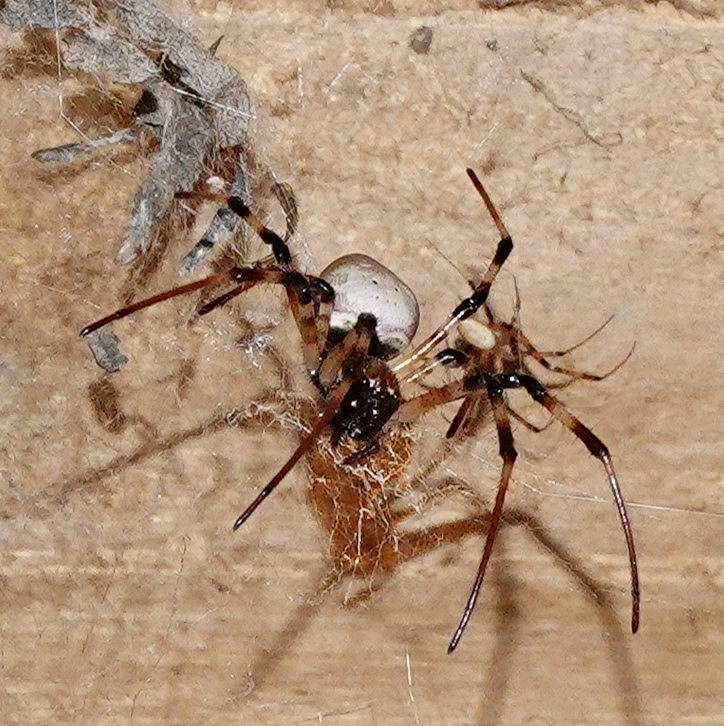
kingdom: Animalia
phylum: Arthropoda
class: Arachnida
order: Araneae
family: Araneidae
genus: Nephilingis
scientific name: Nephilingis livida
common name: Madagascar hermit spider
